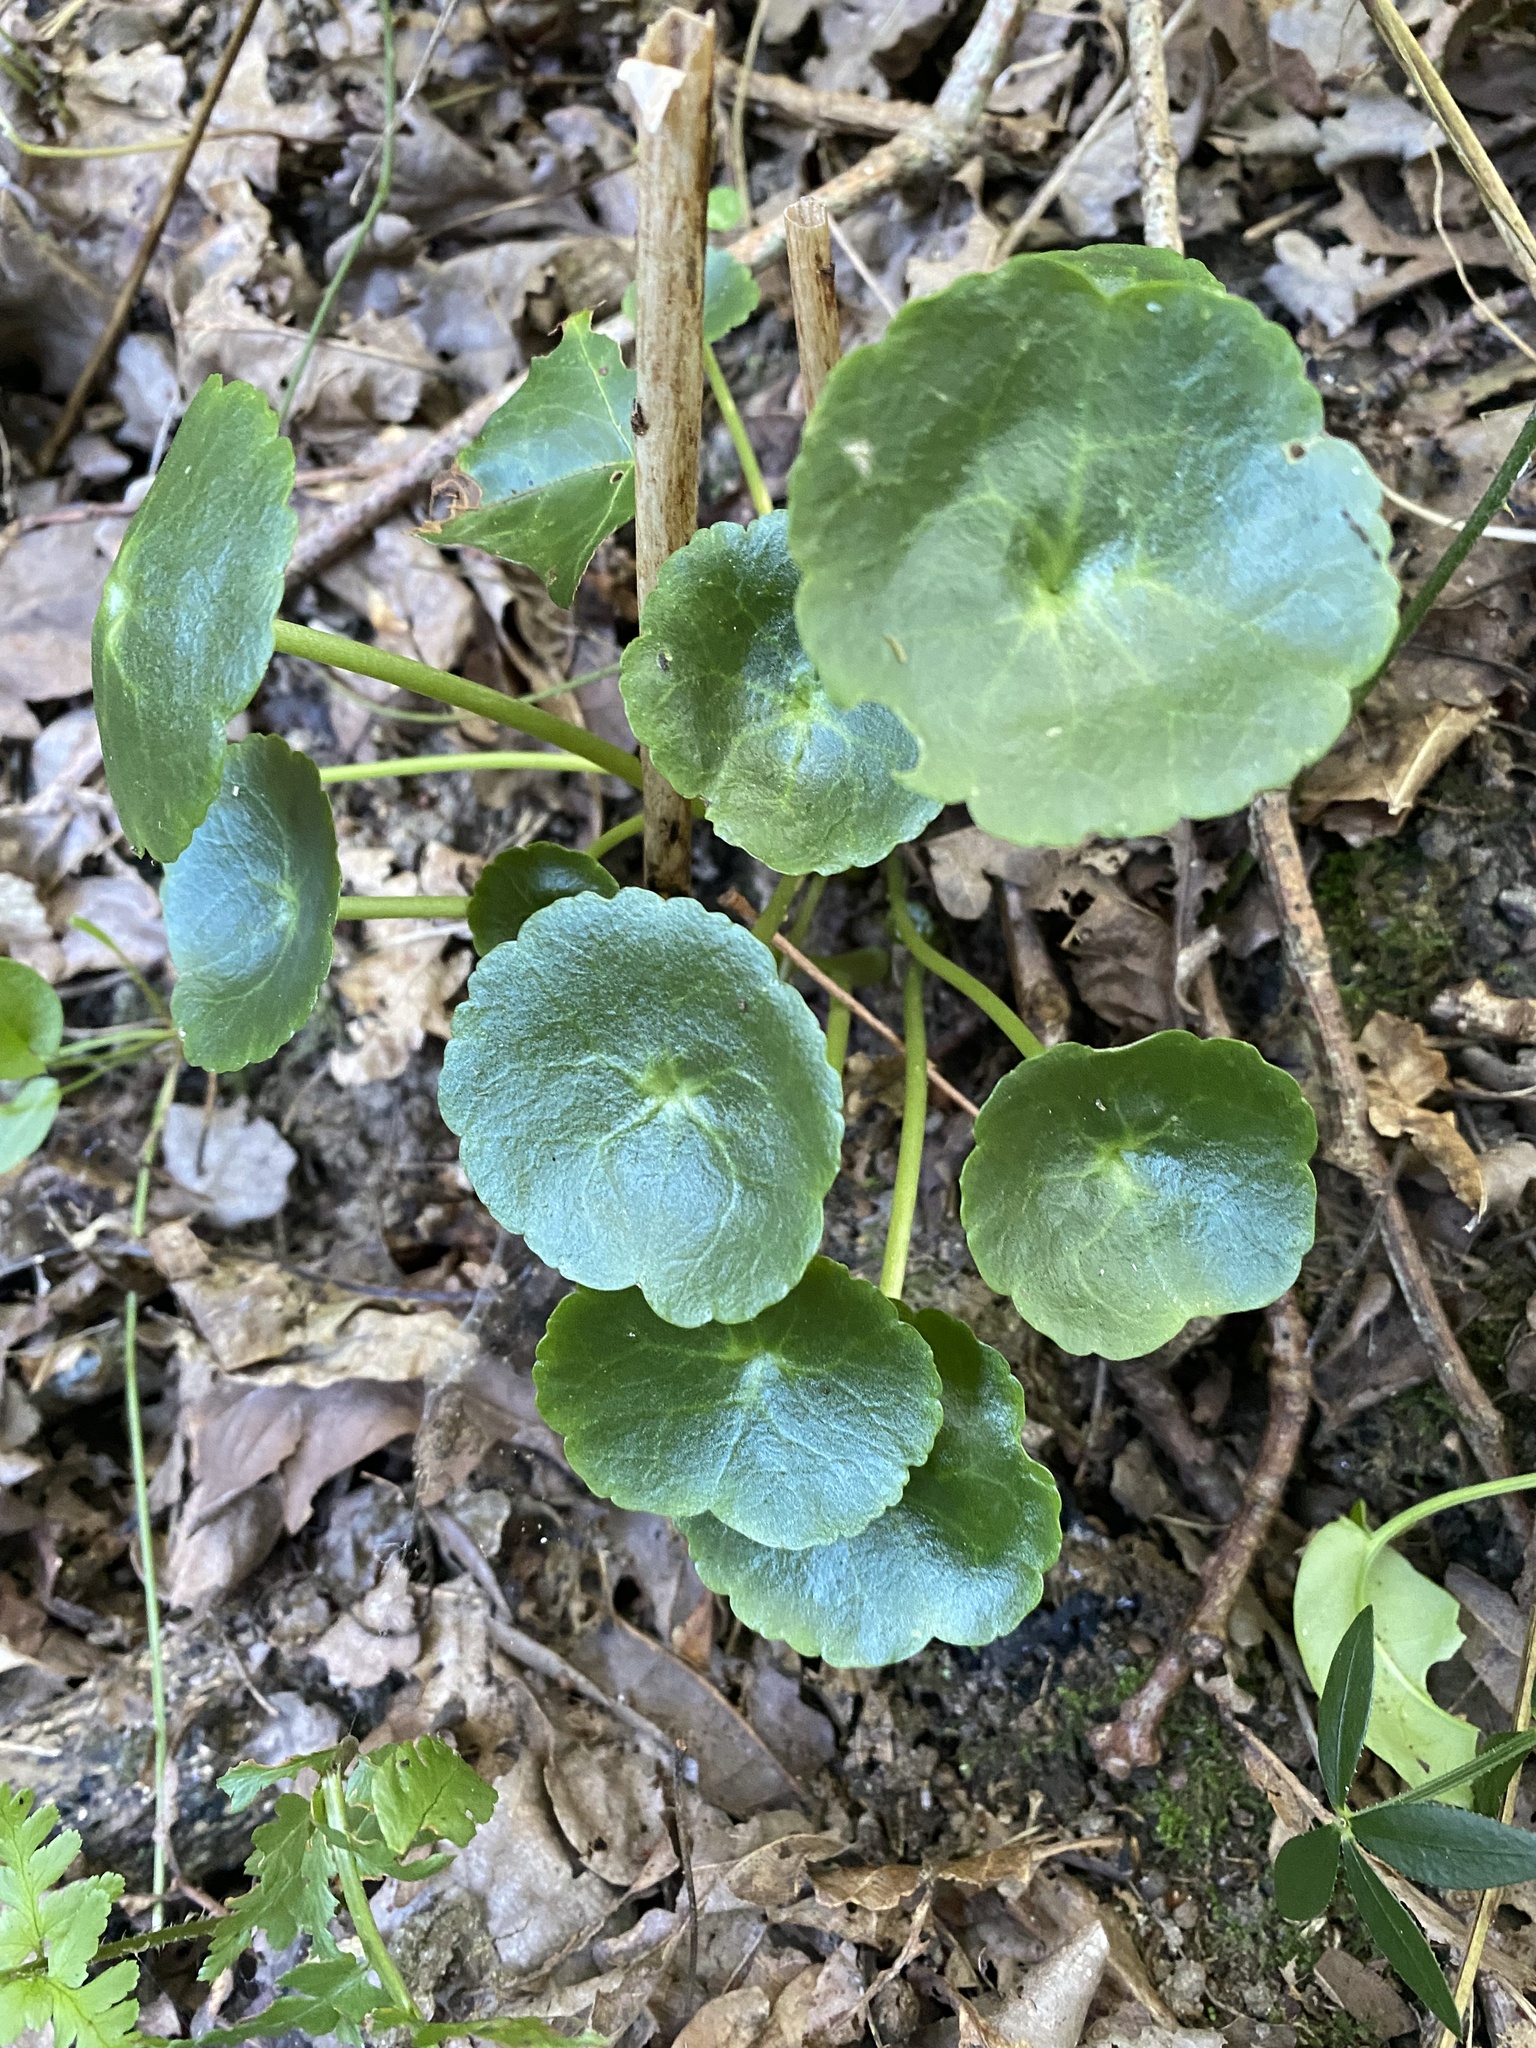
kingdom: Plantae
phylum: Tracheophyta
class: Magnoliopsida
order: Saxifragales
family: Crassulaceae
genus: Umbilicus
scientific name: Umbilicus rupestris
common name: Navelwort
